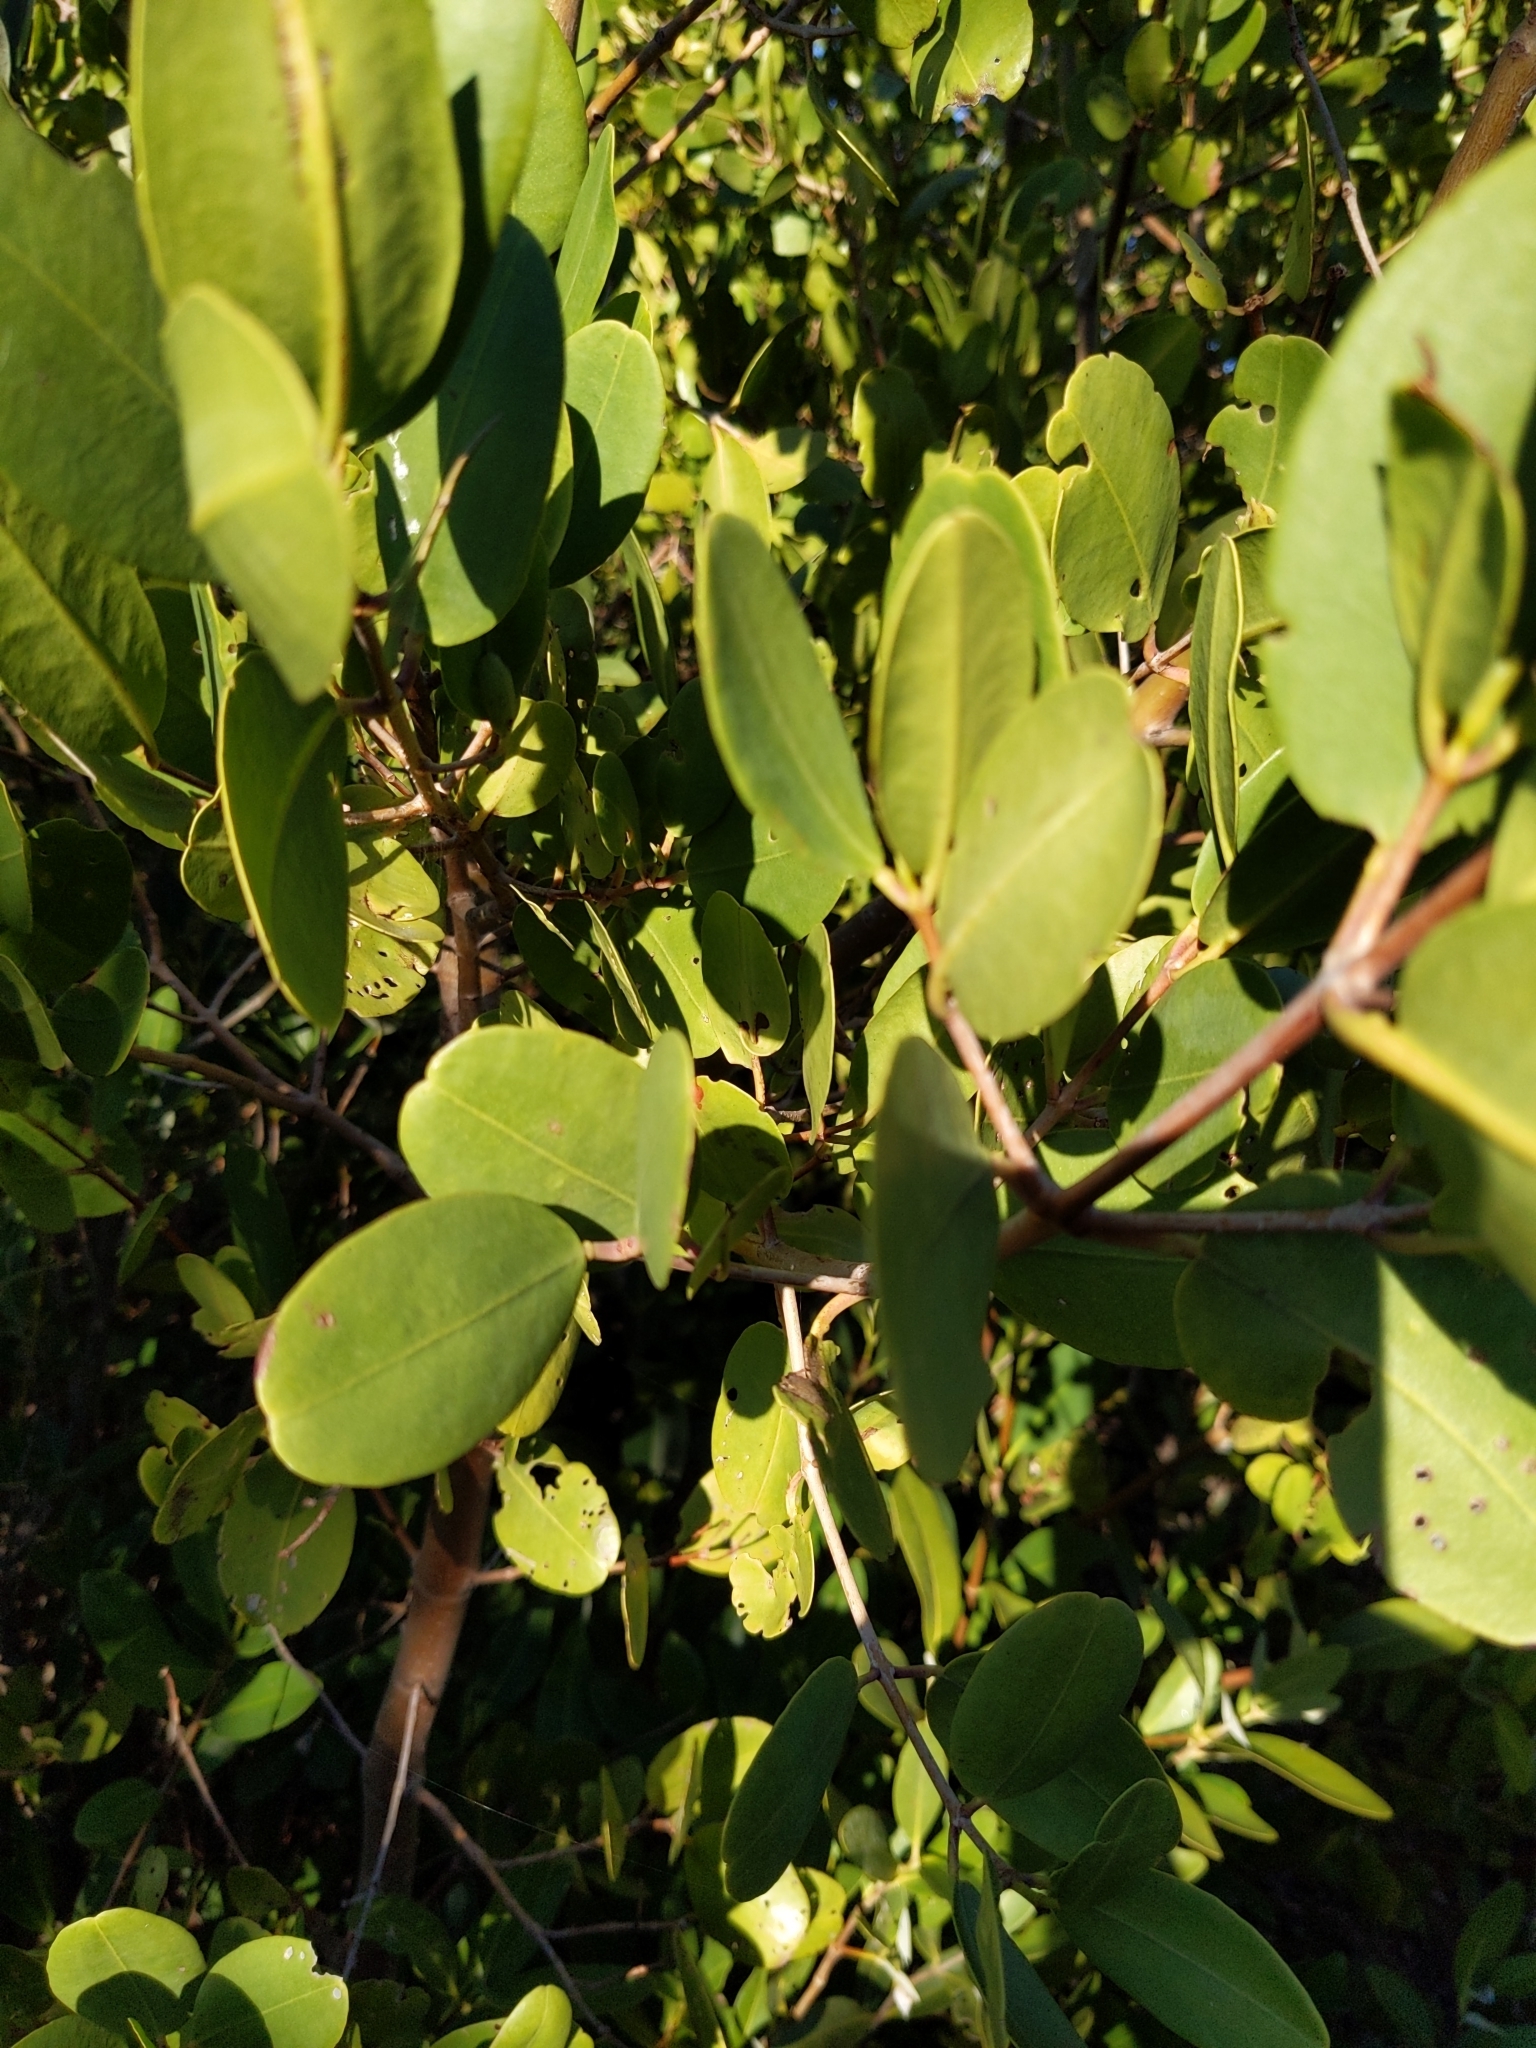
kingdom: Plantae
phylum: Tracheophyta
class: Magnoliopsida
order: Myrtales
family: Combretaceae
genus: Laguncularia
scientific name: Laguncularia racemosa
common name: White mangrove
